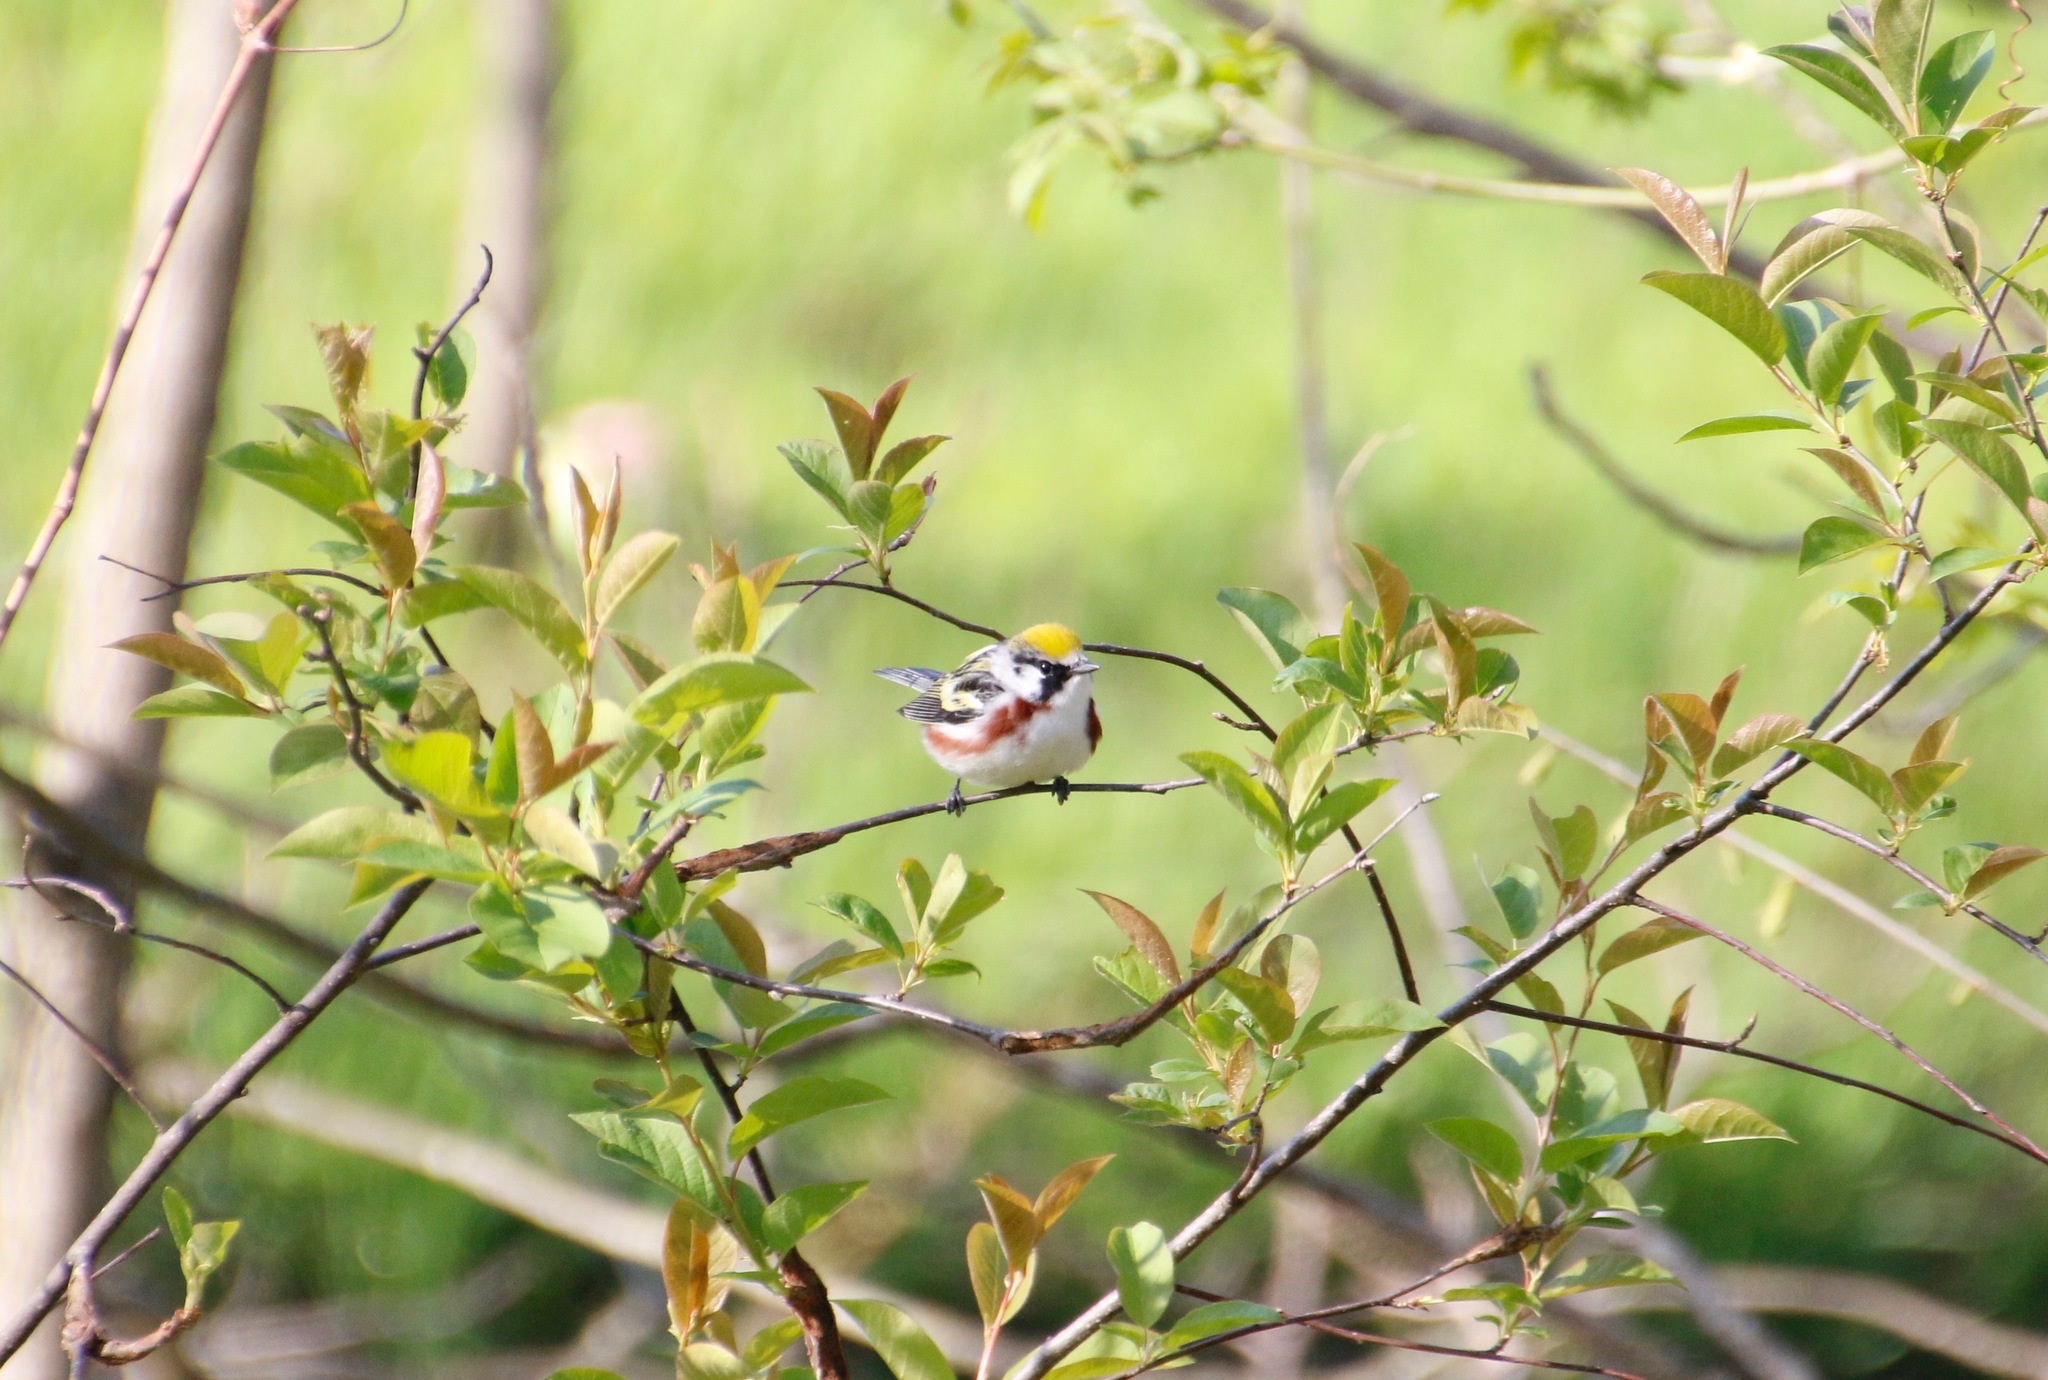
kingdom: Animalia
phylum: Chordata
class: Aves
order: Passeriformes
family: Parulidae
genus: Setophaga
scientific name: Setophaga pensylvanica
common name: Chestnut-sided warbler
